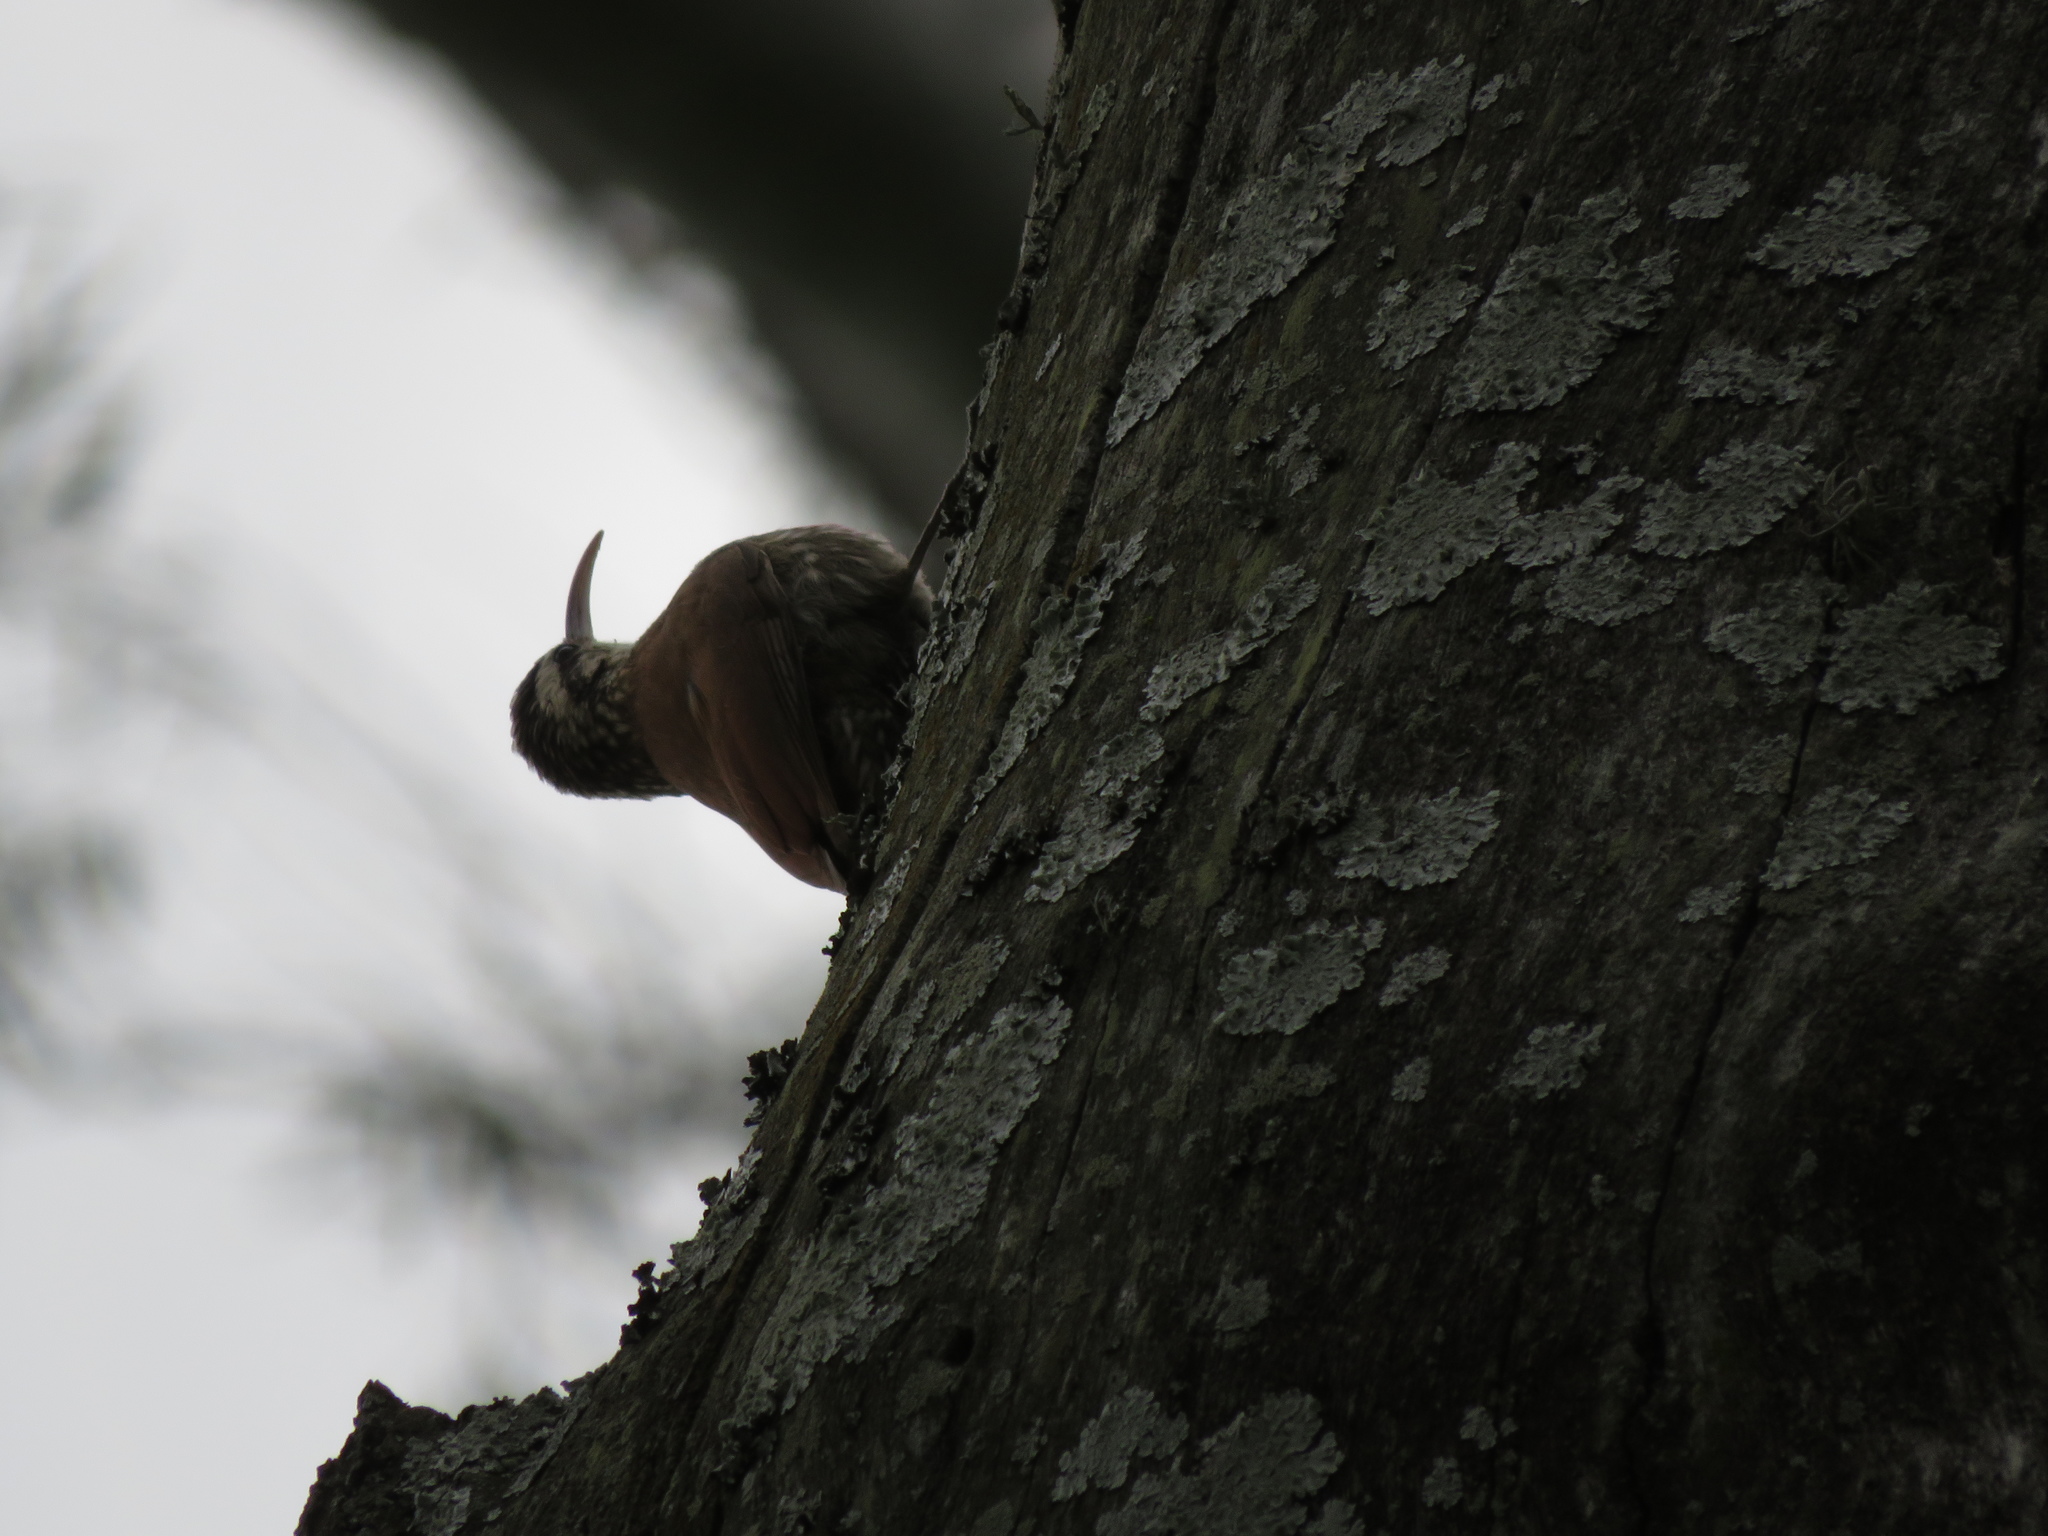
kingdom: Animalia
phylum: Chordata
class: Aves
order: Passeriformes
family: Furnariidae
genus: Lepidocolaptes
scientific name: Lepidocolaptes angustirostris
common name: Narrow-billed woodcreeper
